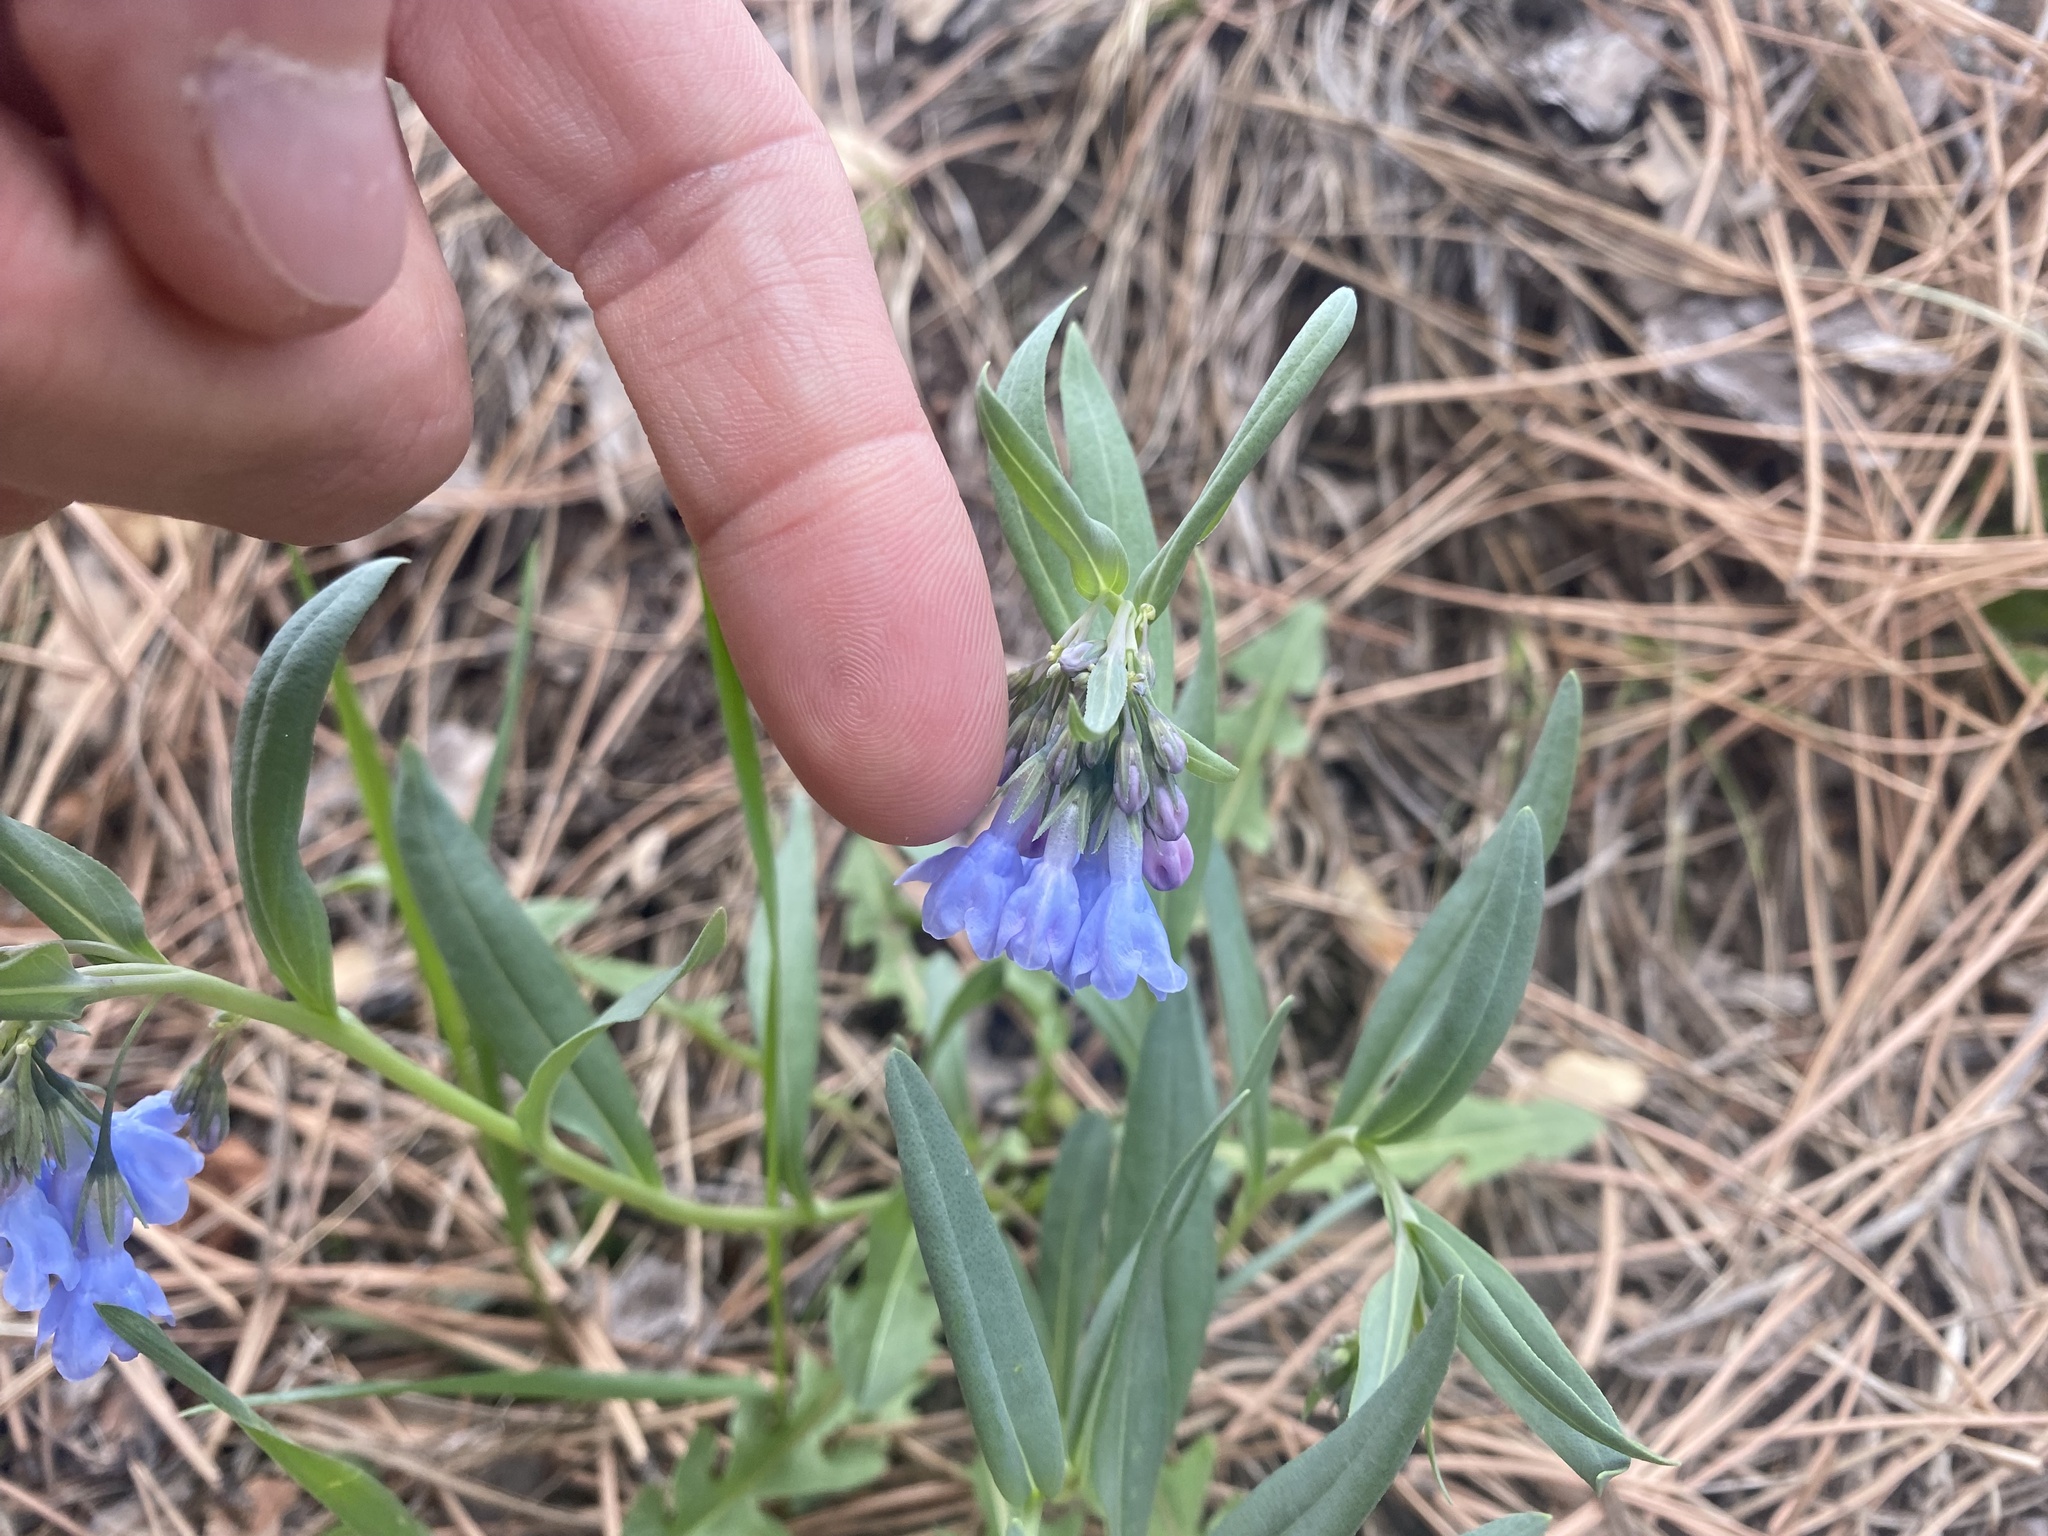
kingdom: Plantae
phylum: Tracheophyta
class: Magnoliopsida
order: Boraginales
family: Boraginaceae
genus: Mertensia
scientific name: Mertensia lanceolata
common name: Lance-leaved bluebells
